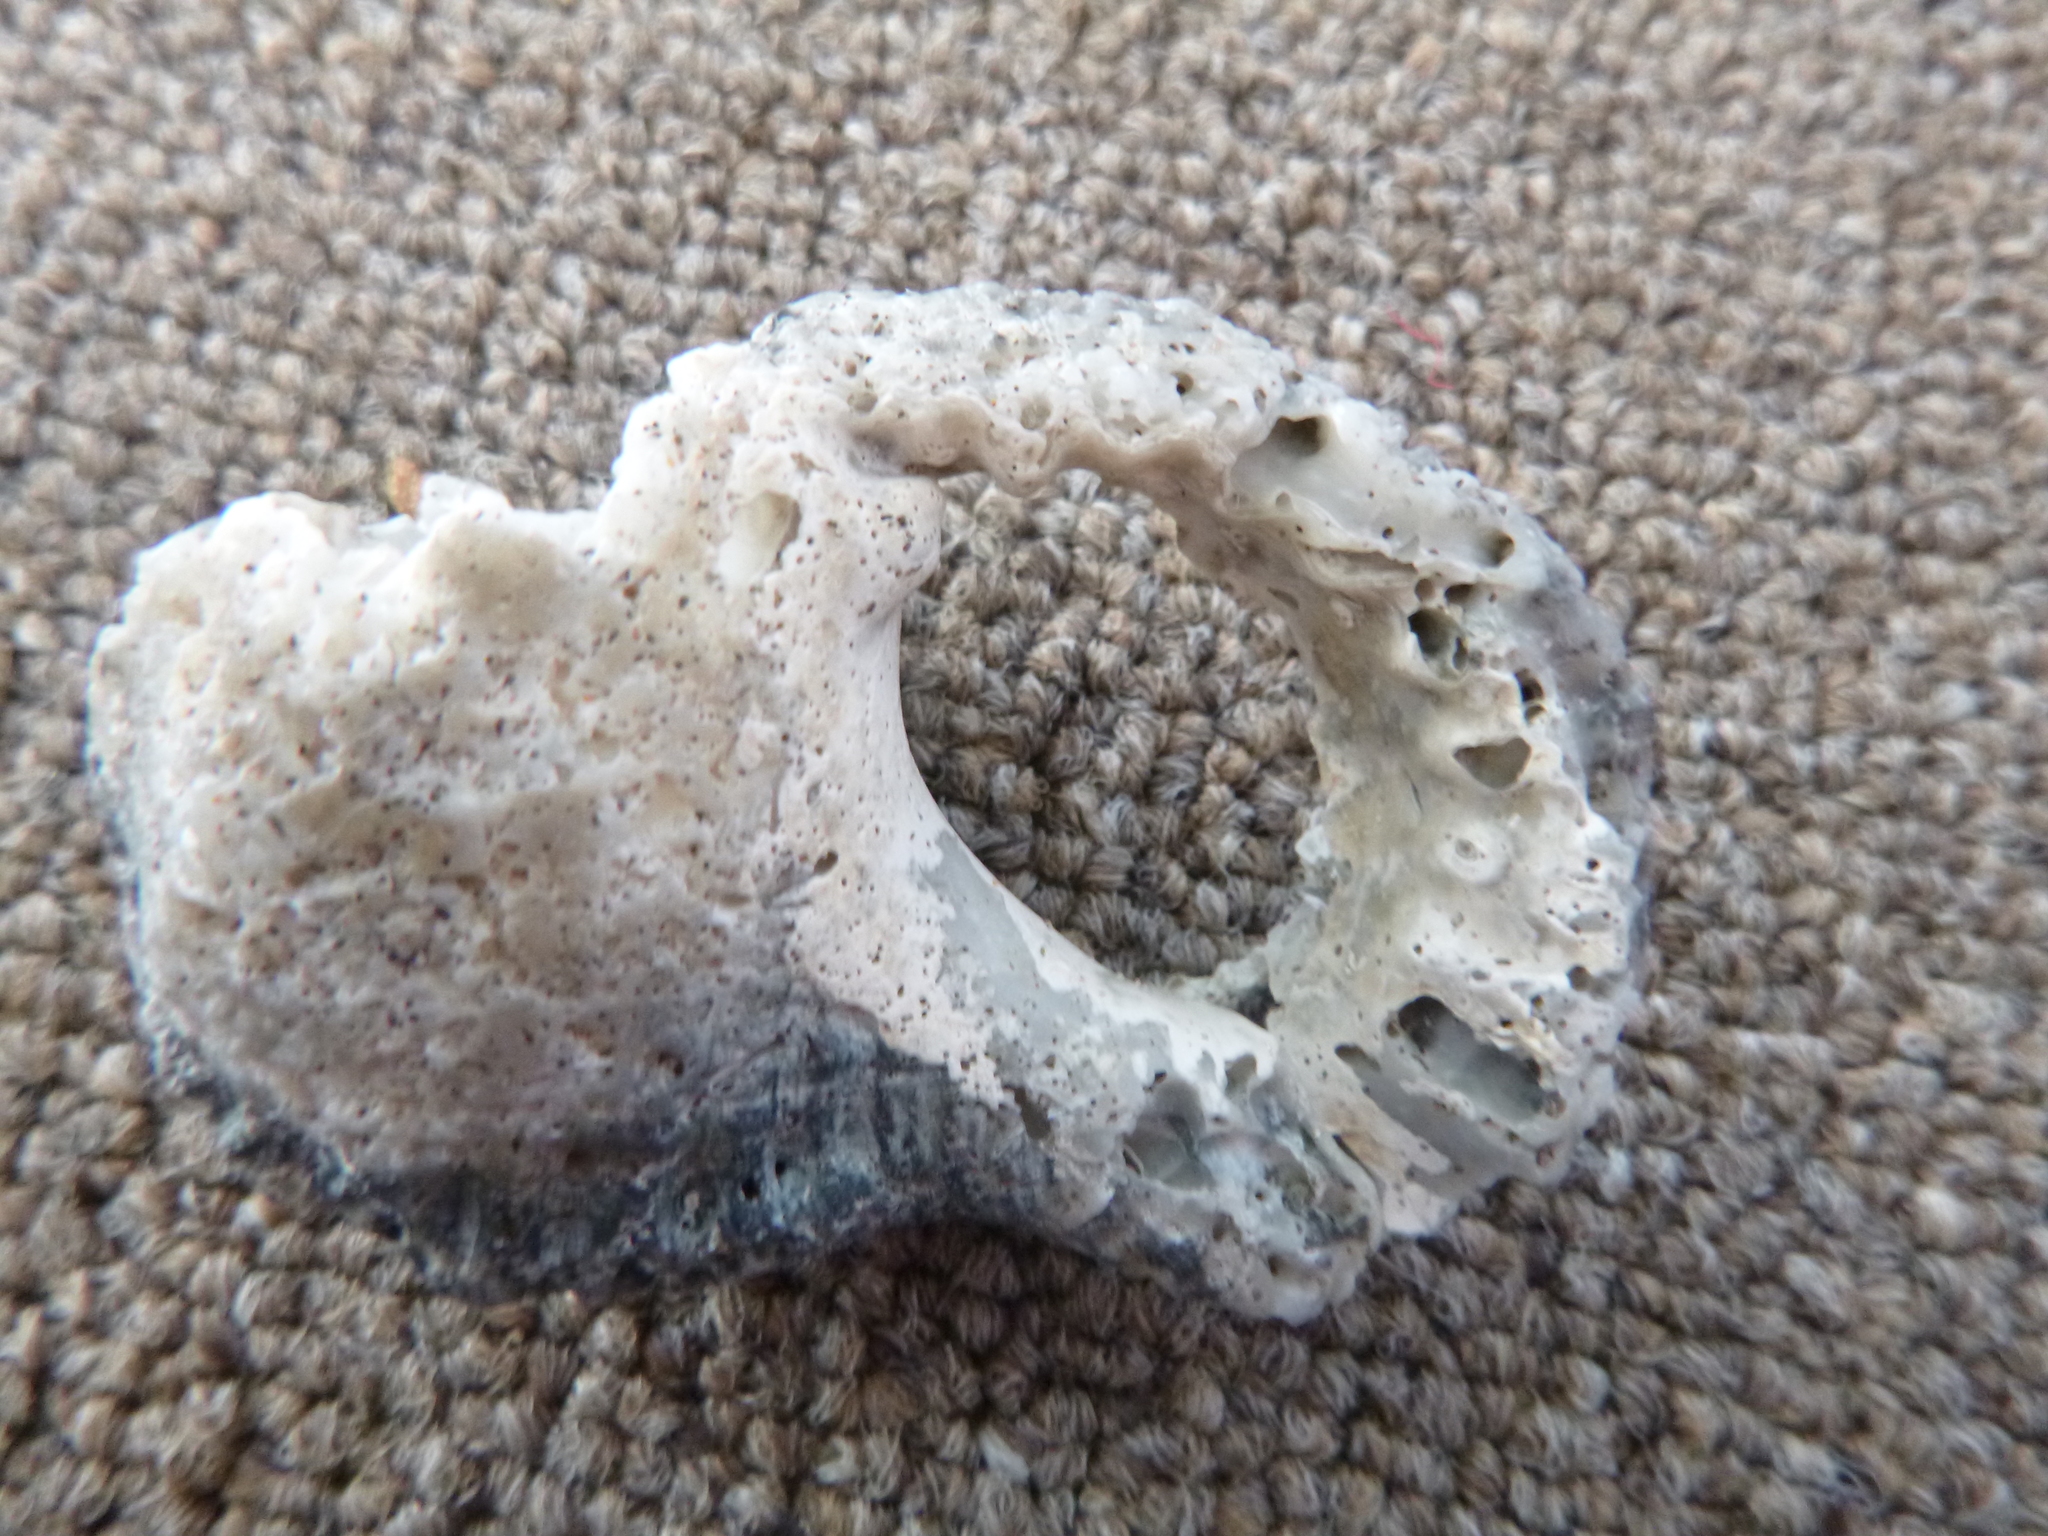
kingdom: Animalia
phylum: Mollusca
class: Gastropoda
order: Littorinimorpha
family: Ranellidae
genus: Ranella
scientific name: Ranella australasia
